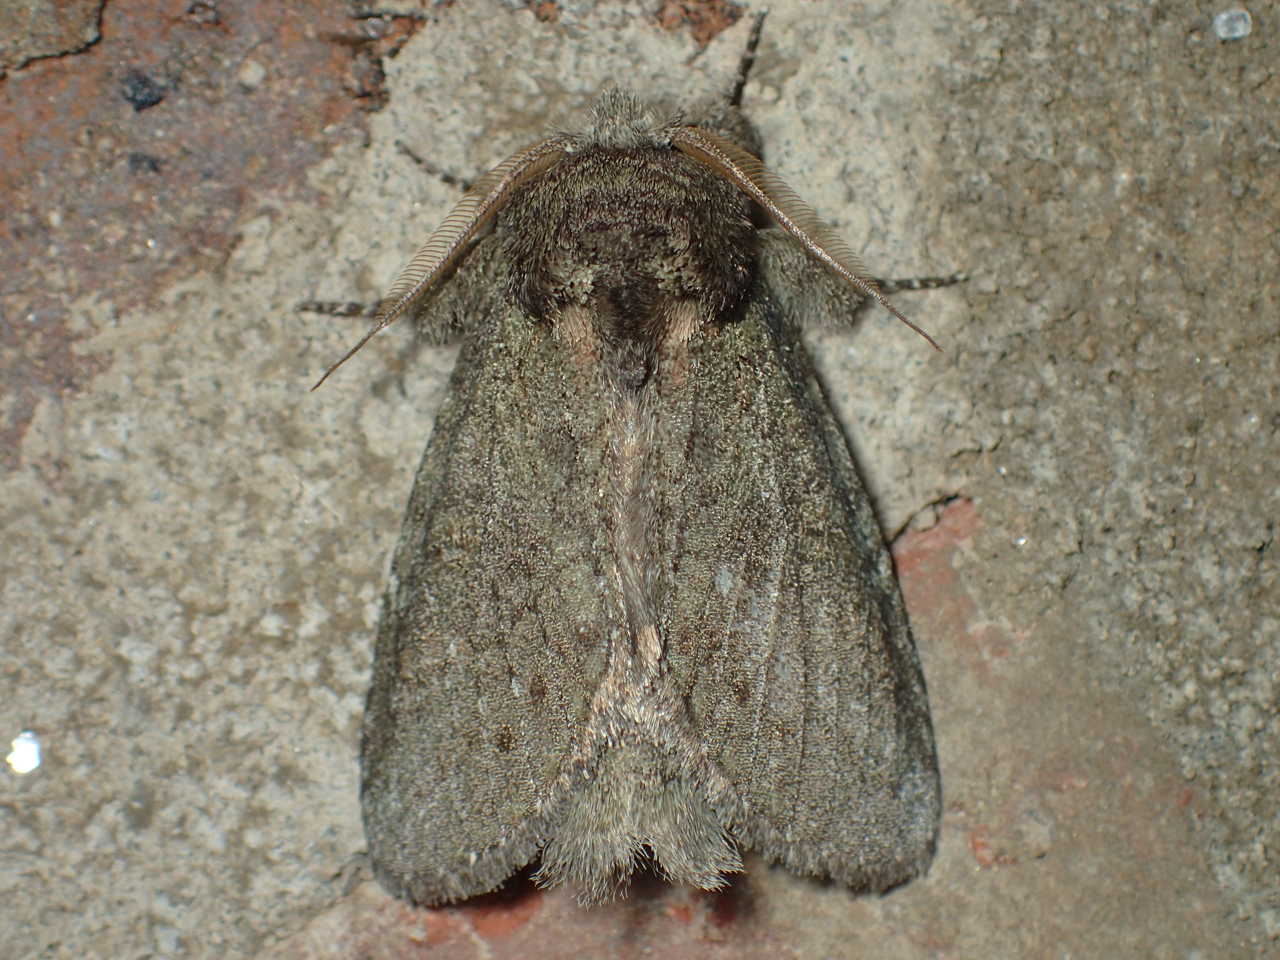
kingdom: Animalia
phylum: Arthropoda
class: Insecta
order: Lepidoptera
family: Notodontidae
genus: Disphragis
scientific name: Disphragis Cecrita guttivitta
